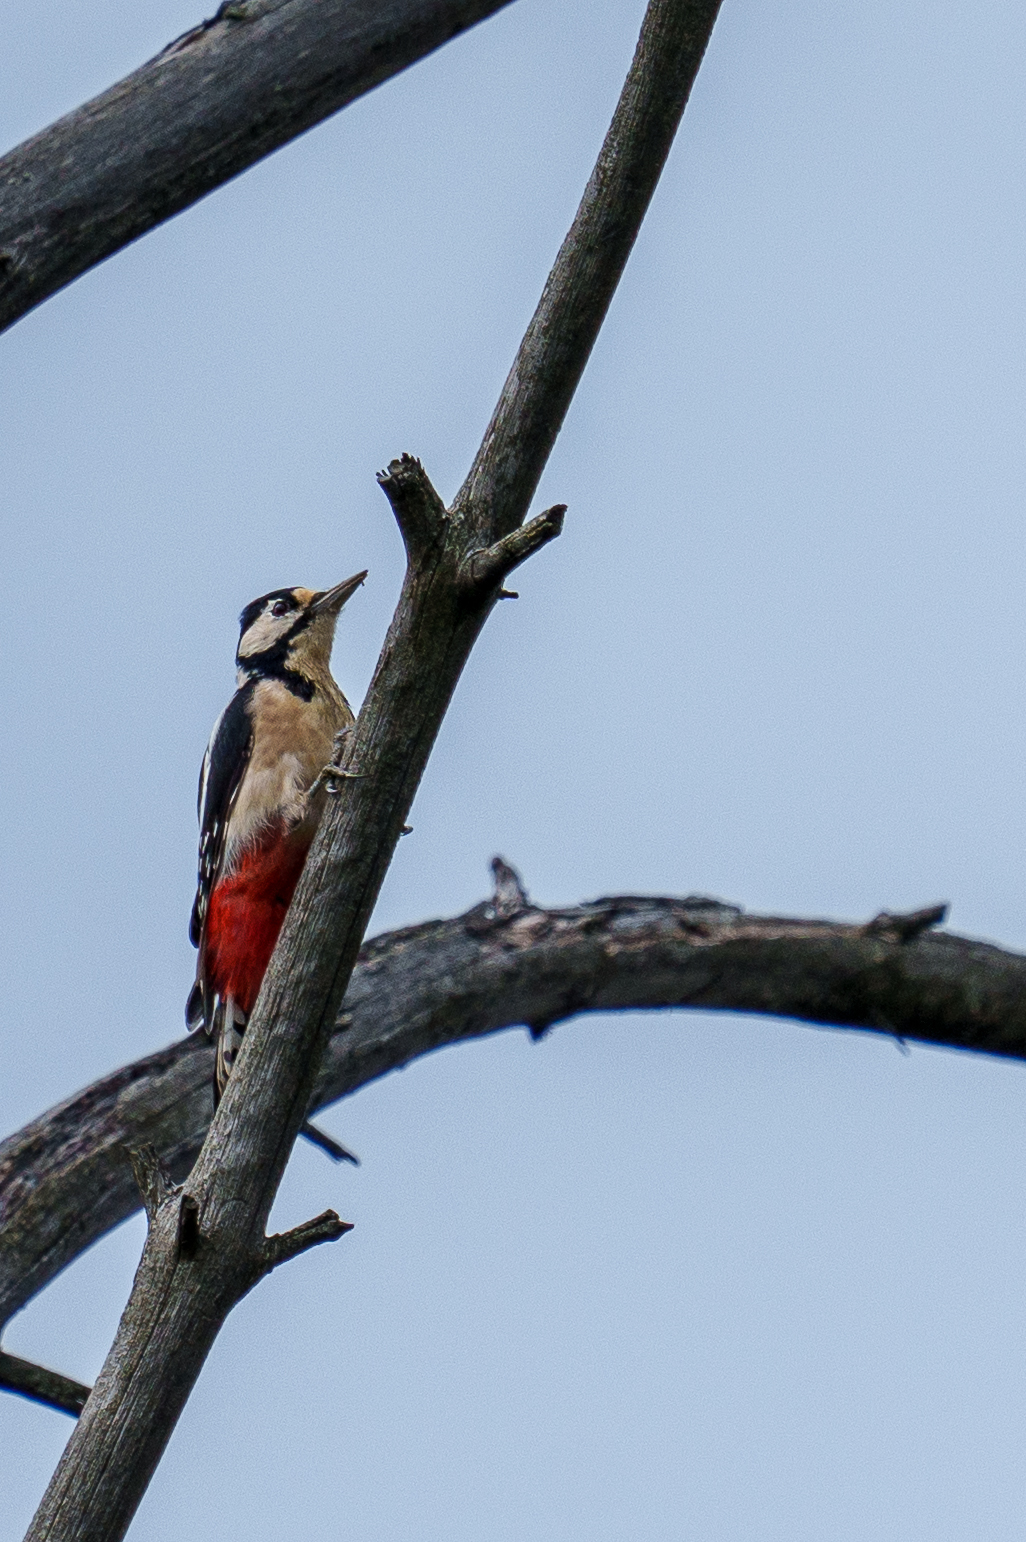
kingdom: Animalia
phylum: Chordata
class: Aves
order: Piciformes
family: Picidae
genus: Dendrocopos
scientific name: Dendrocopos major
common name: Great spotted woodpecker
